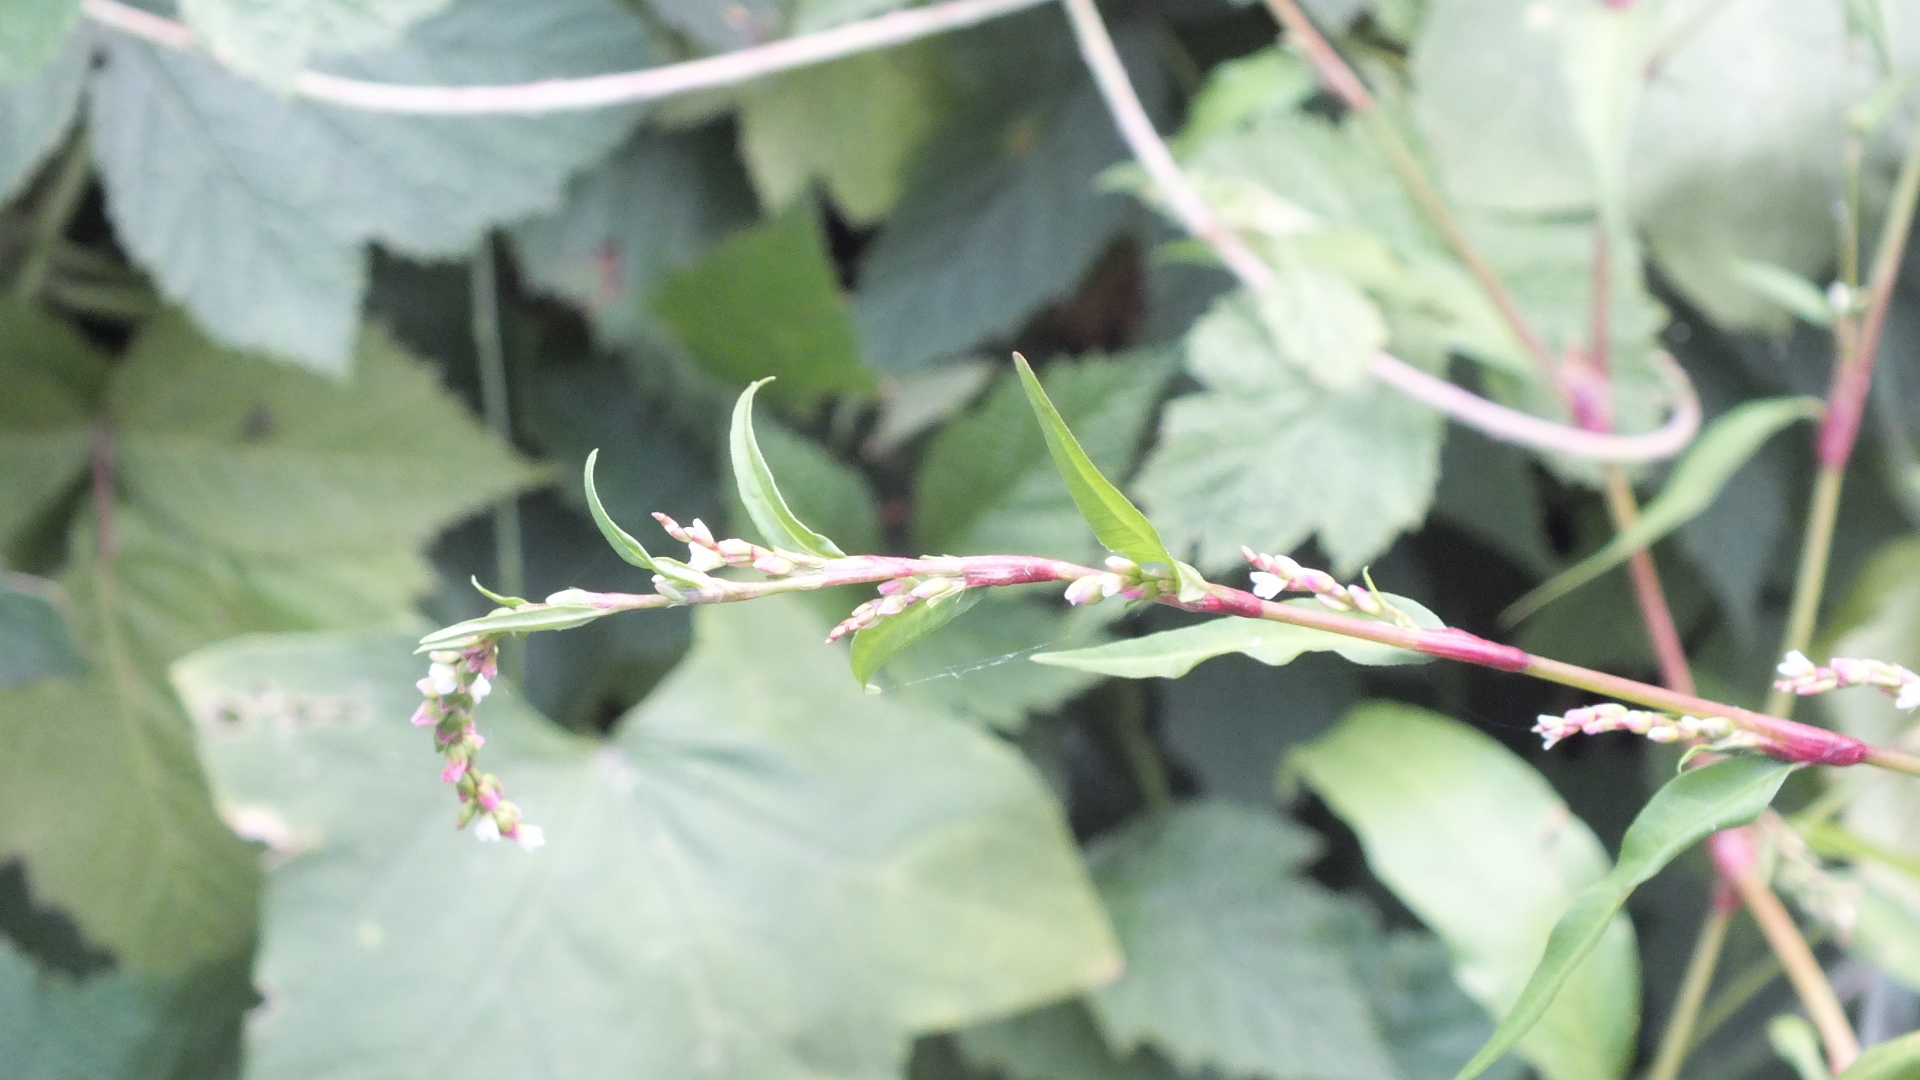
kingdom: Plantae
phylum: Tracheophyta
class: Magnoliopsida
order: Caryophyllales
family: Polygonaceae
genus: Persicaria
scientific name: Persicaria hydropiper
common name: Water-pepper
